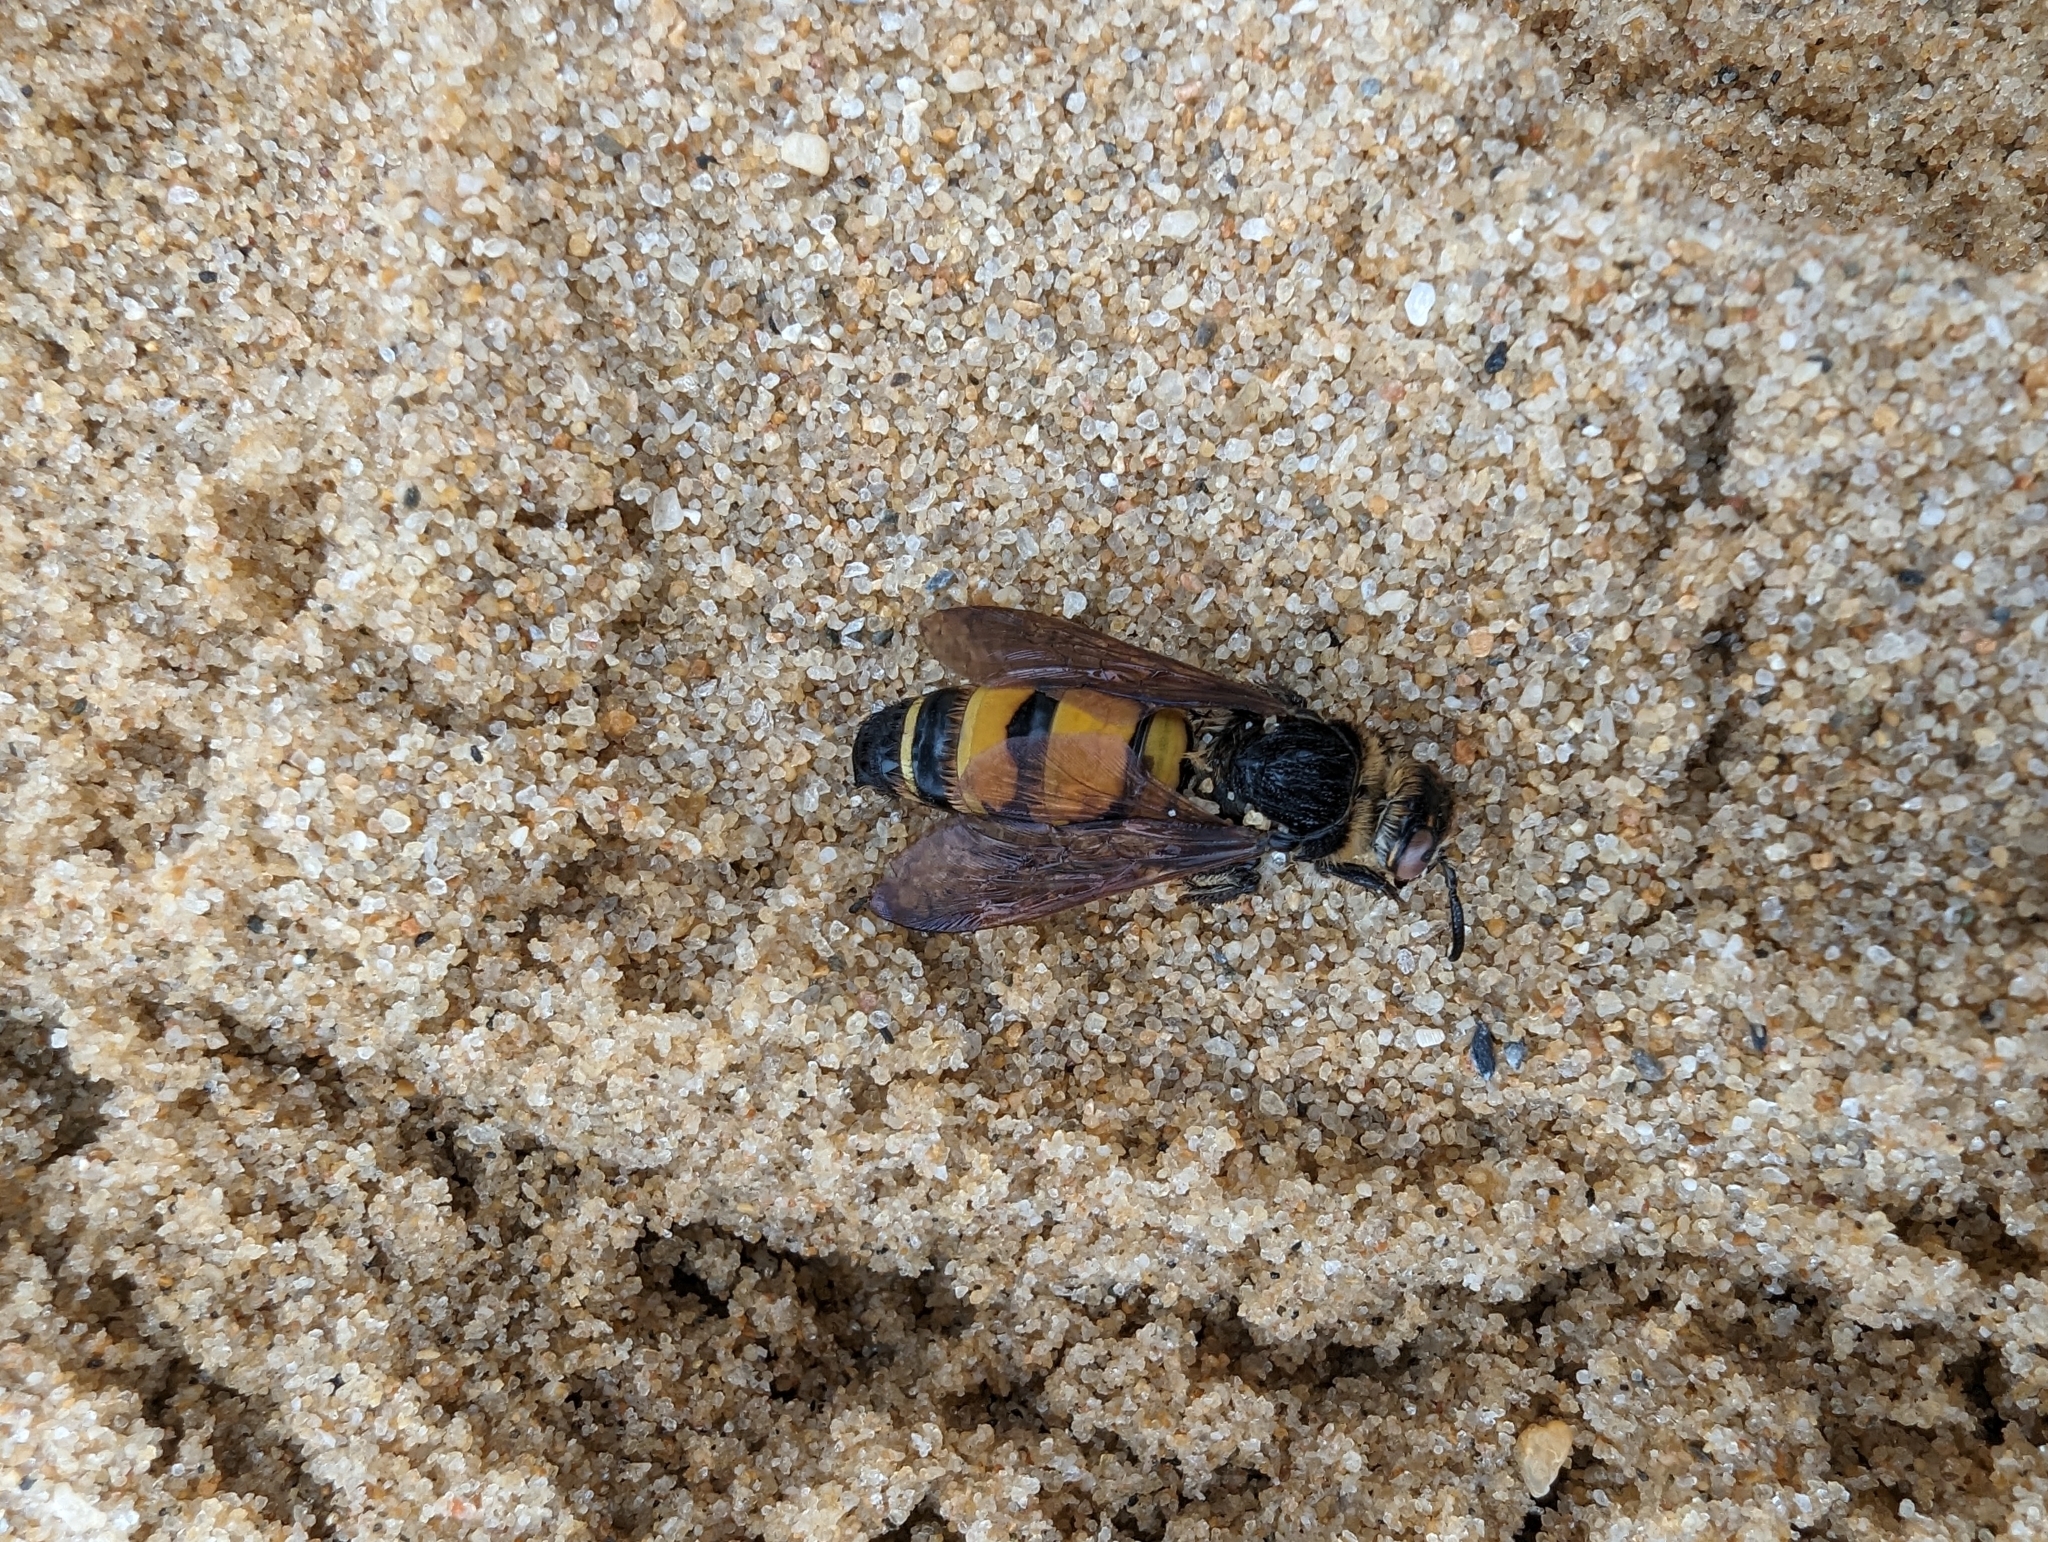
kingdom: Animalia
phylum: Arthropoda
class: Insecta
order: Hymenoptera
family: Scoliidae
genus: Radumeris
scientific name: Radumeris tasmaniensis
